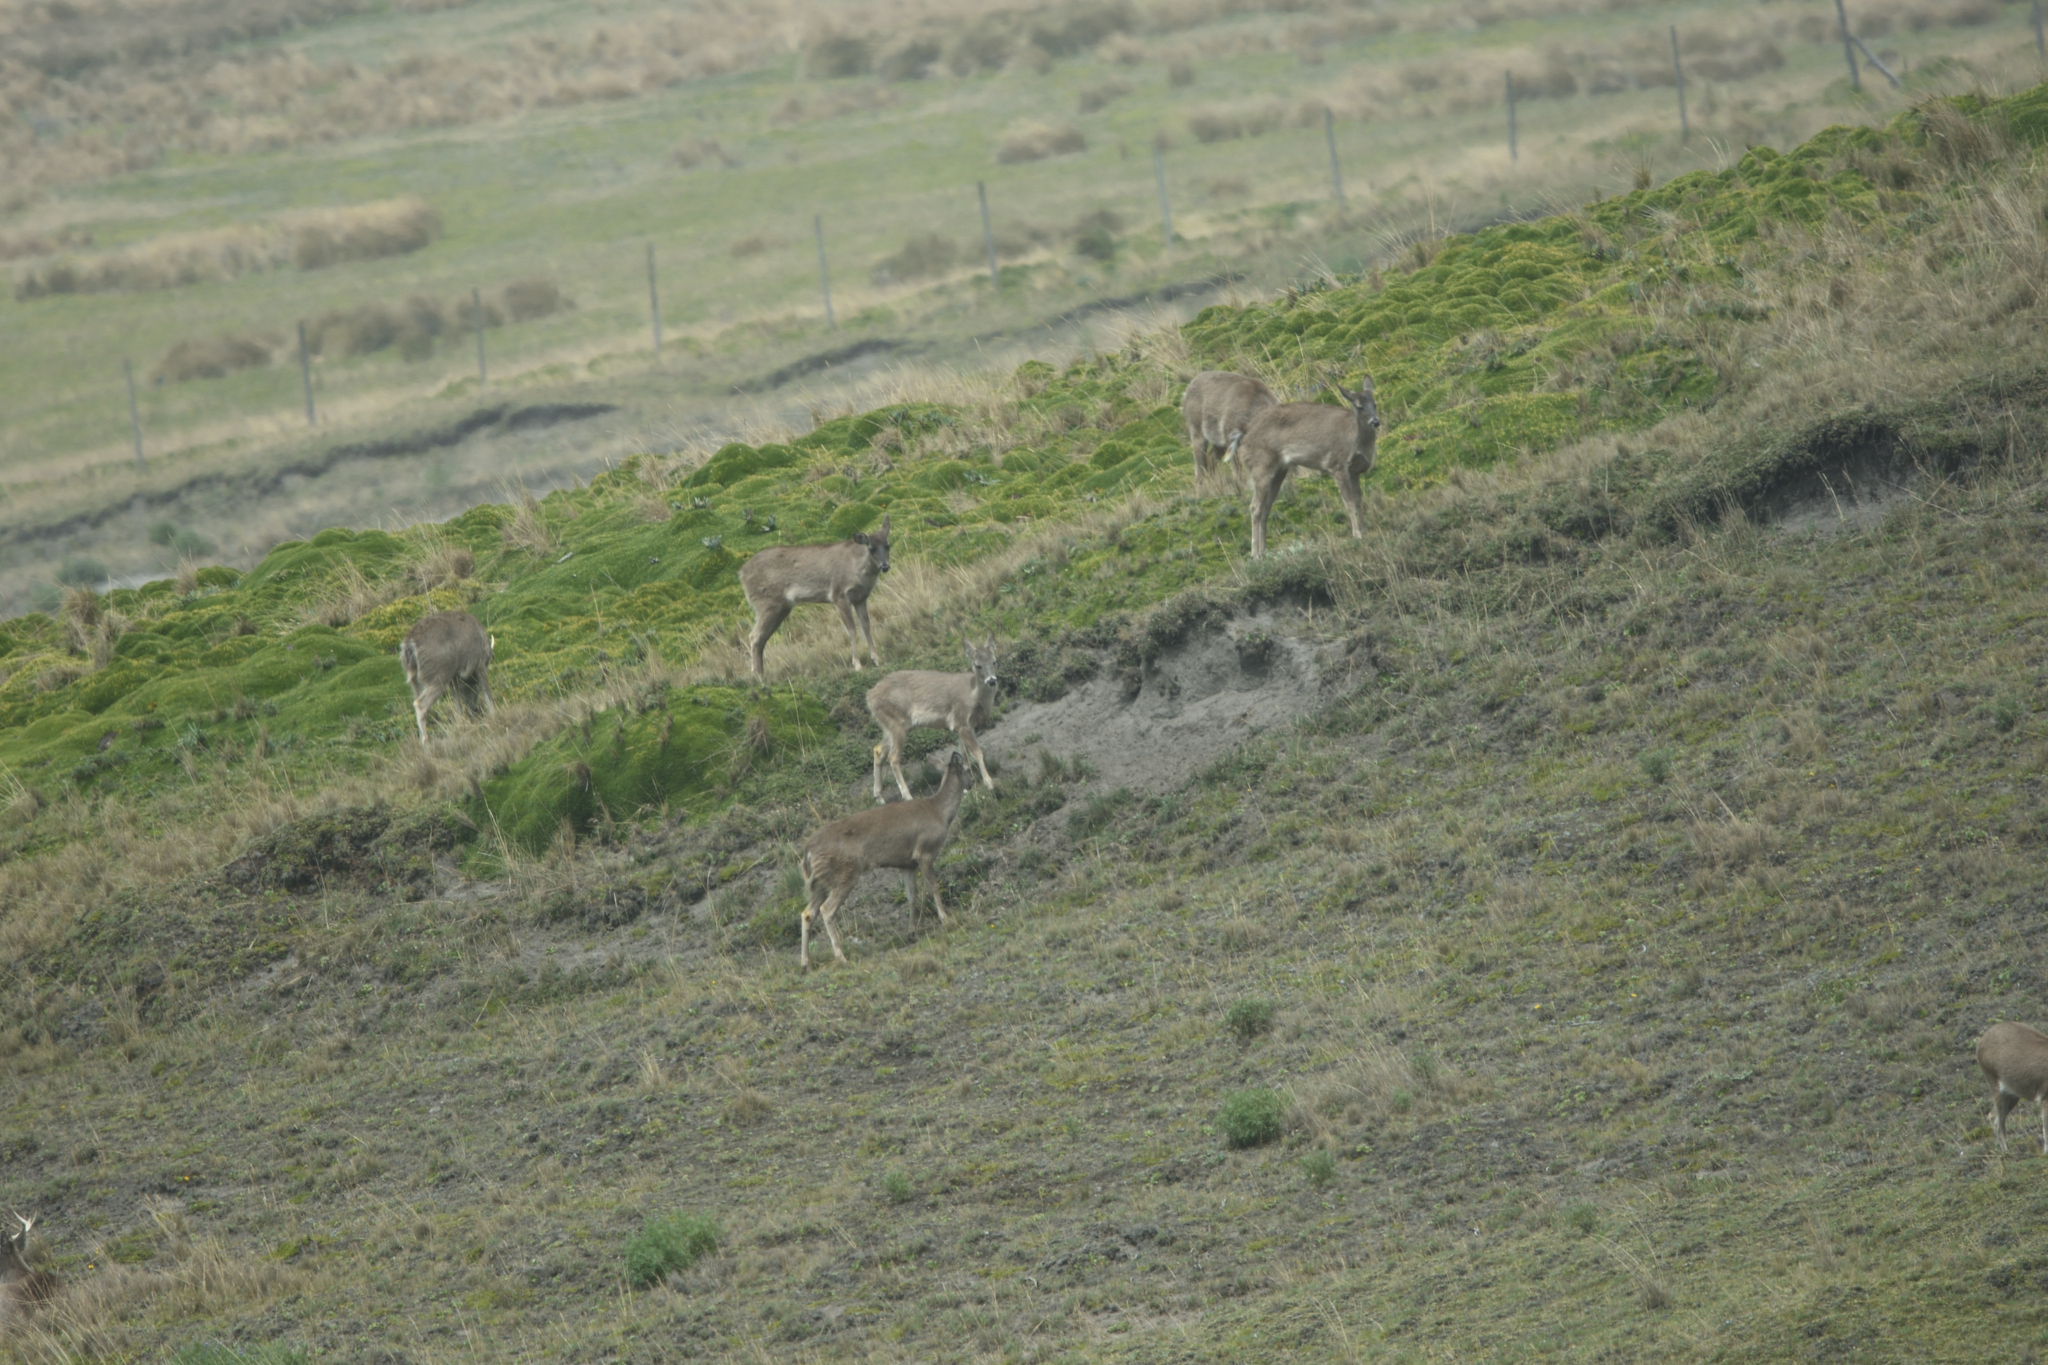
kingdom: Animalia
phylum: Chordata
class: Mammalia
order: Artiodactyla
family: Cervidae
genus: Odocoileus
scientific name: Odocoileus virginianus
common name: White-tailed deer
